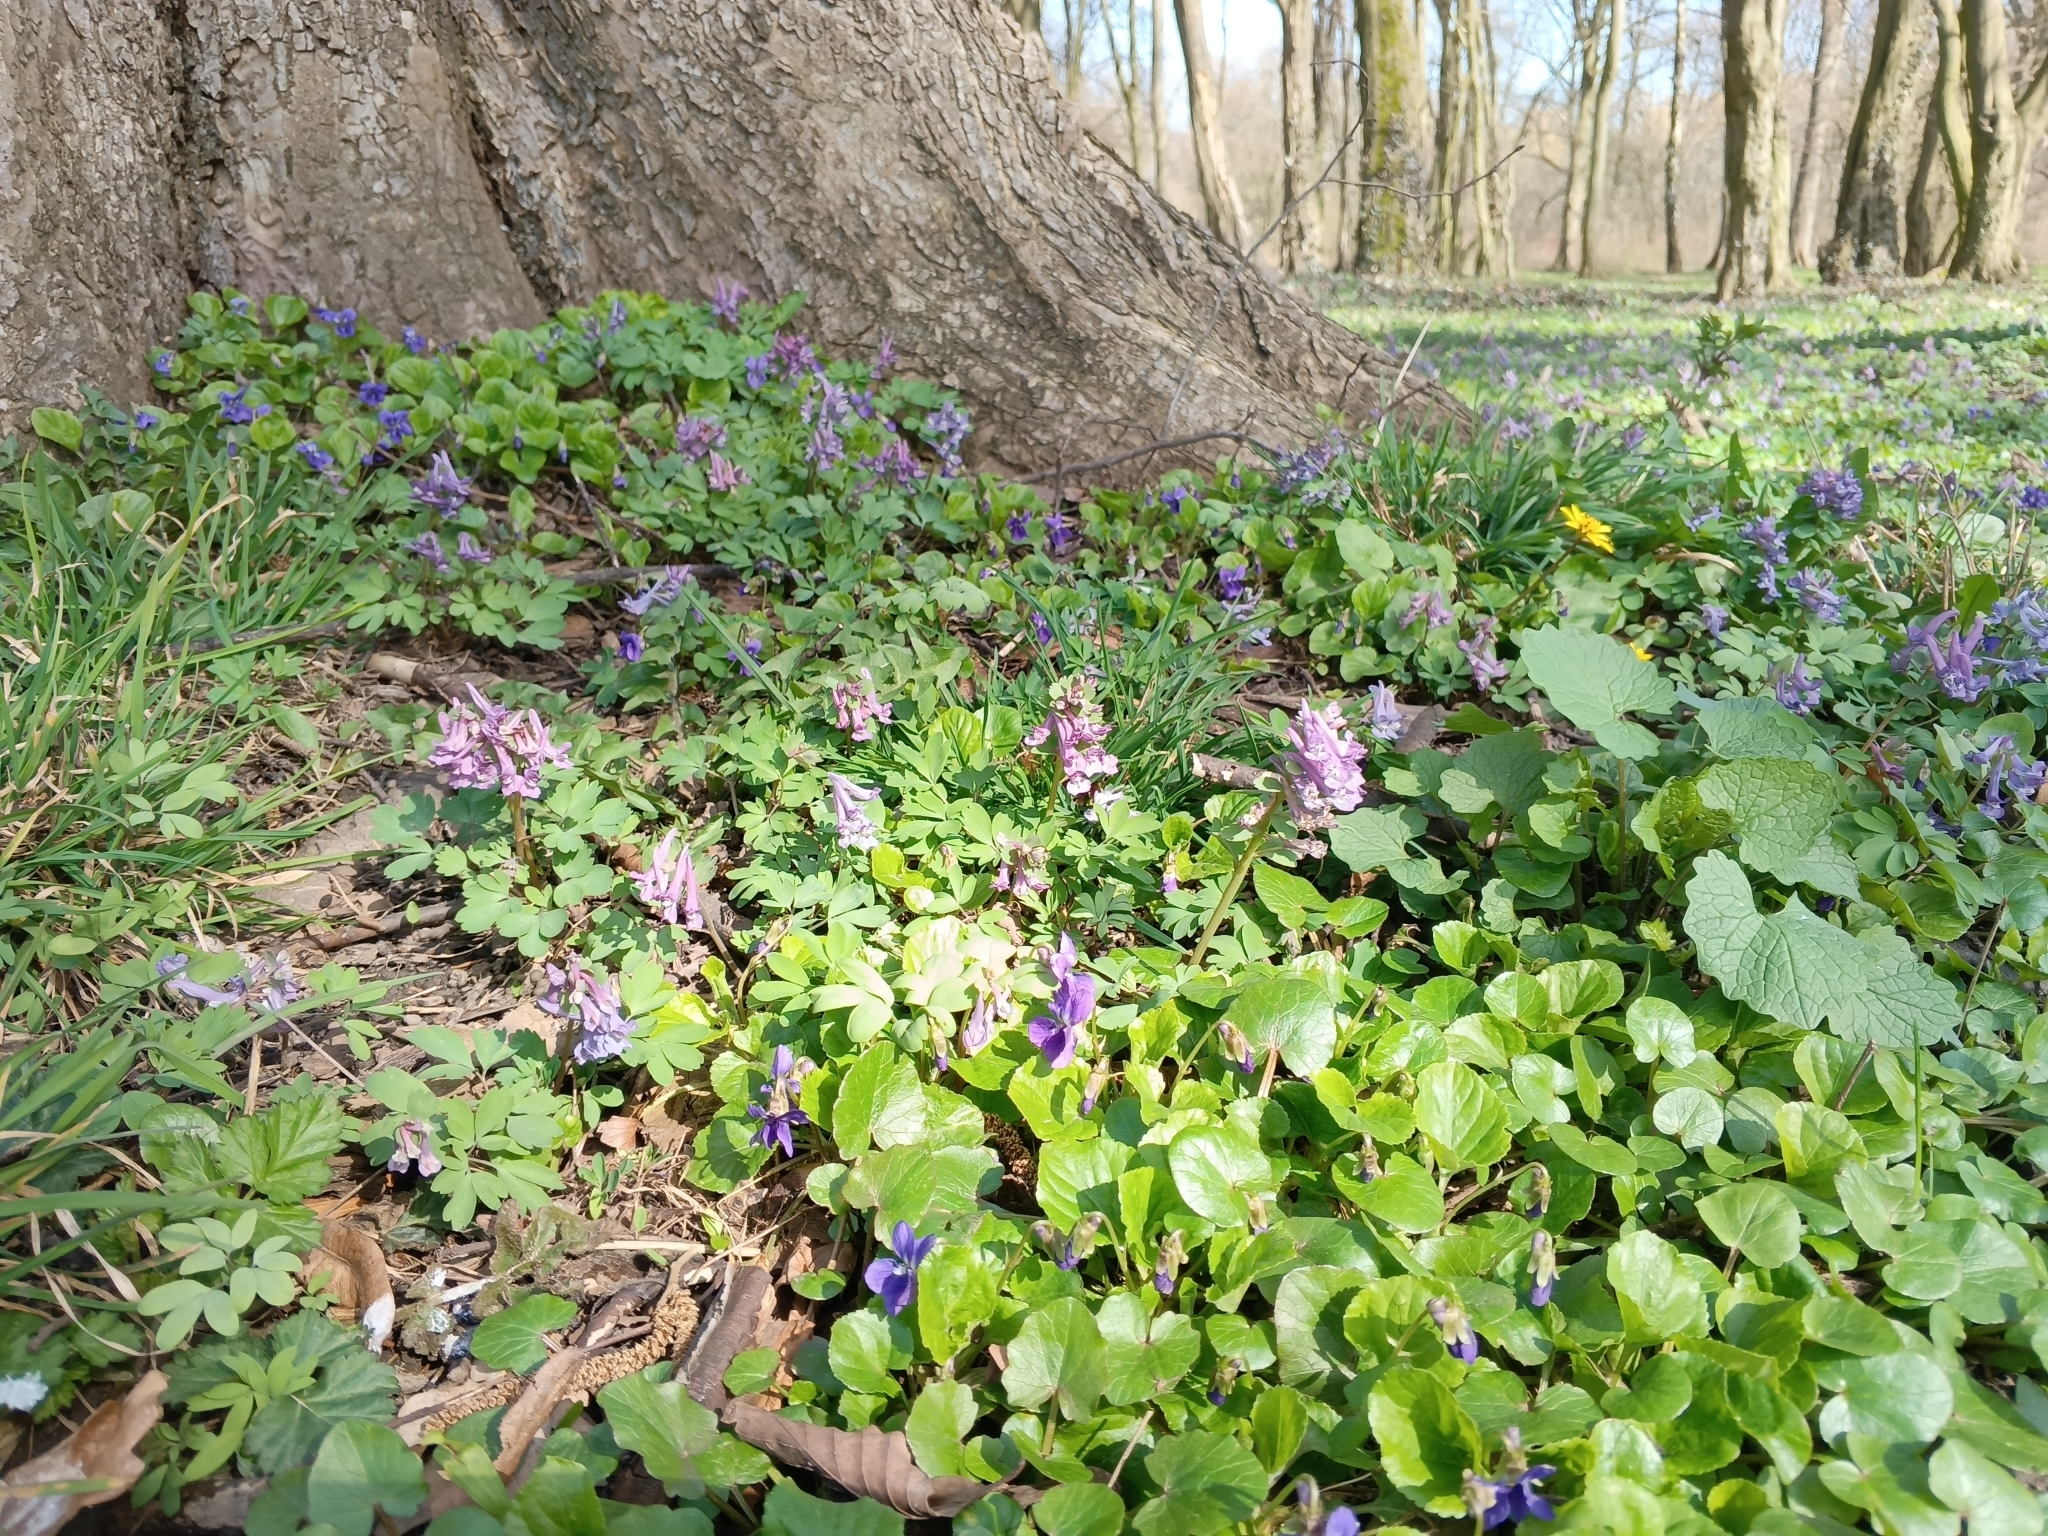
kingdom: Plantae
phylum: Tracheophyta
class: Magnoliopsida
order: Ranunculales
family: Papaveraceae
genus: Corydalis
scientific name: Corydalis solida
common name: Bird-in-a-bush
